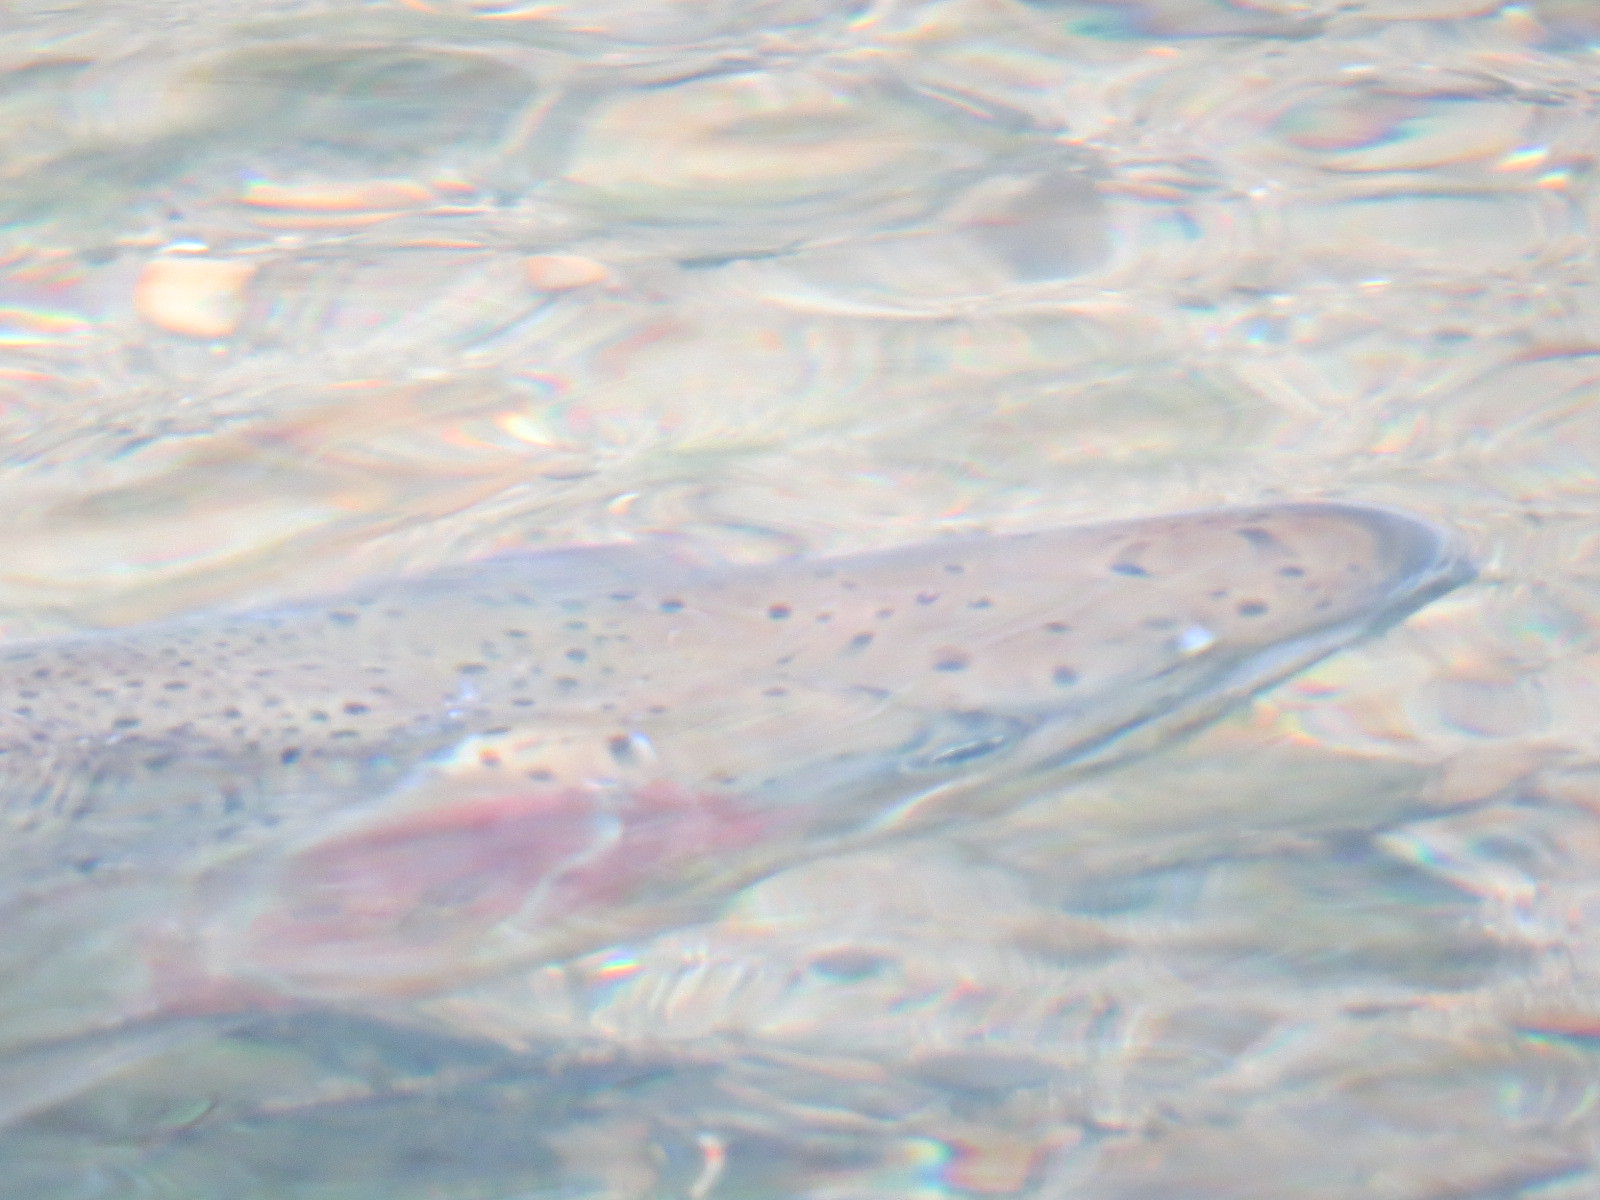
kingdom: Animalia
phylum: Chordata
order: Salmoniformes
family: Salmonidae
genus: Oncorhynchus
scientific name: Oncorhynchus mykiss
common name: Rainbow trout
